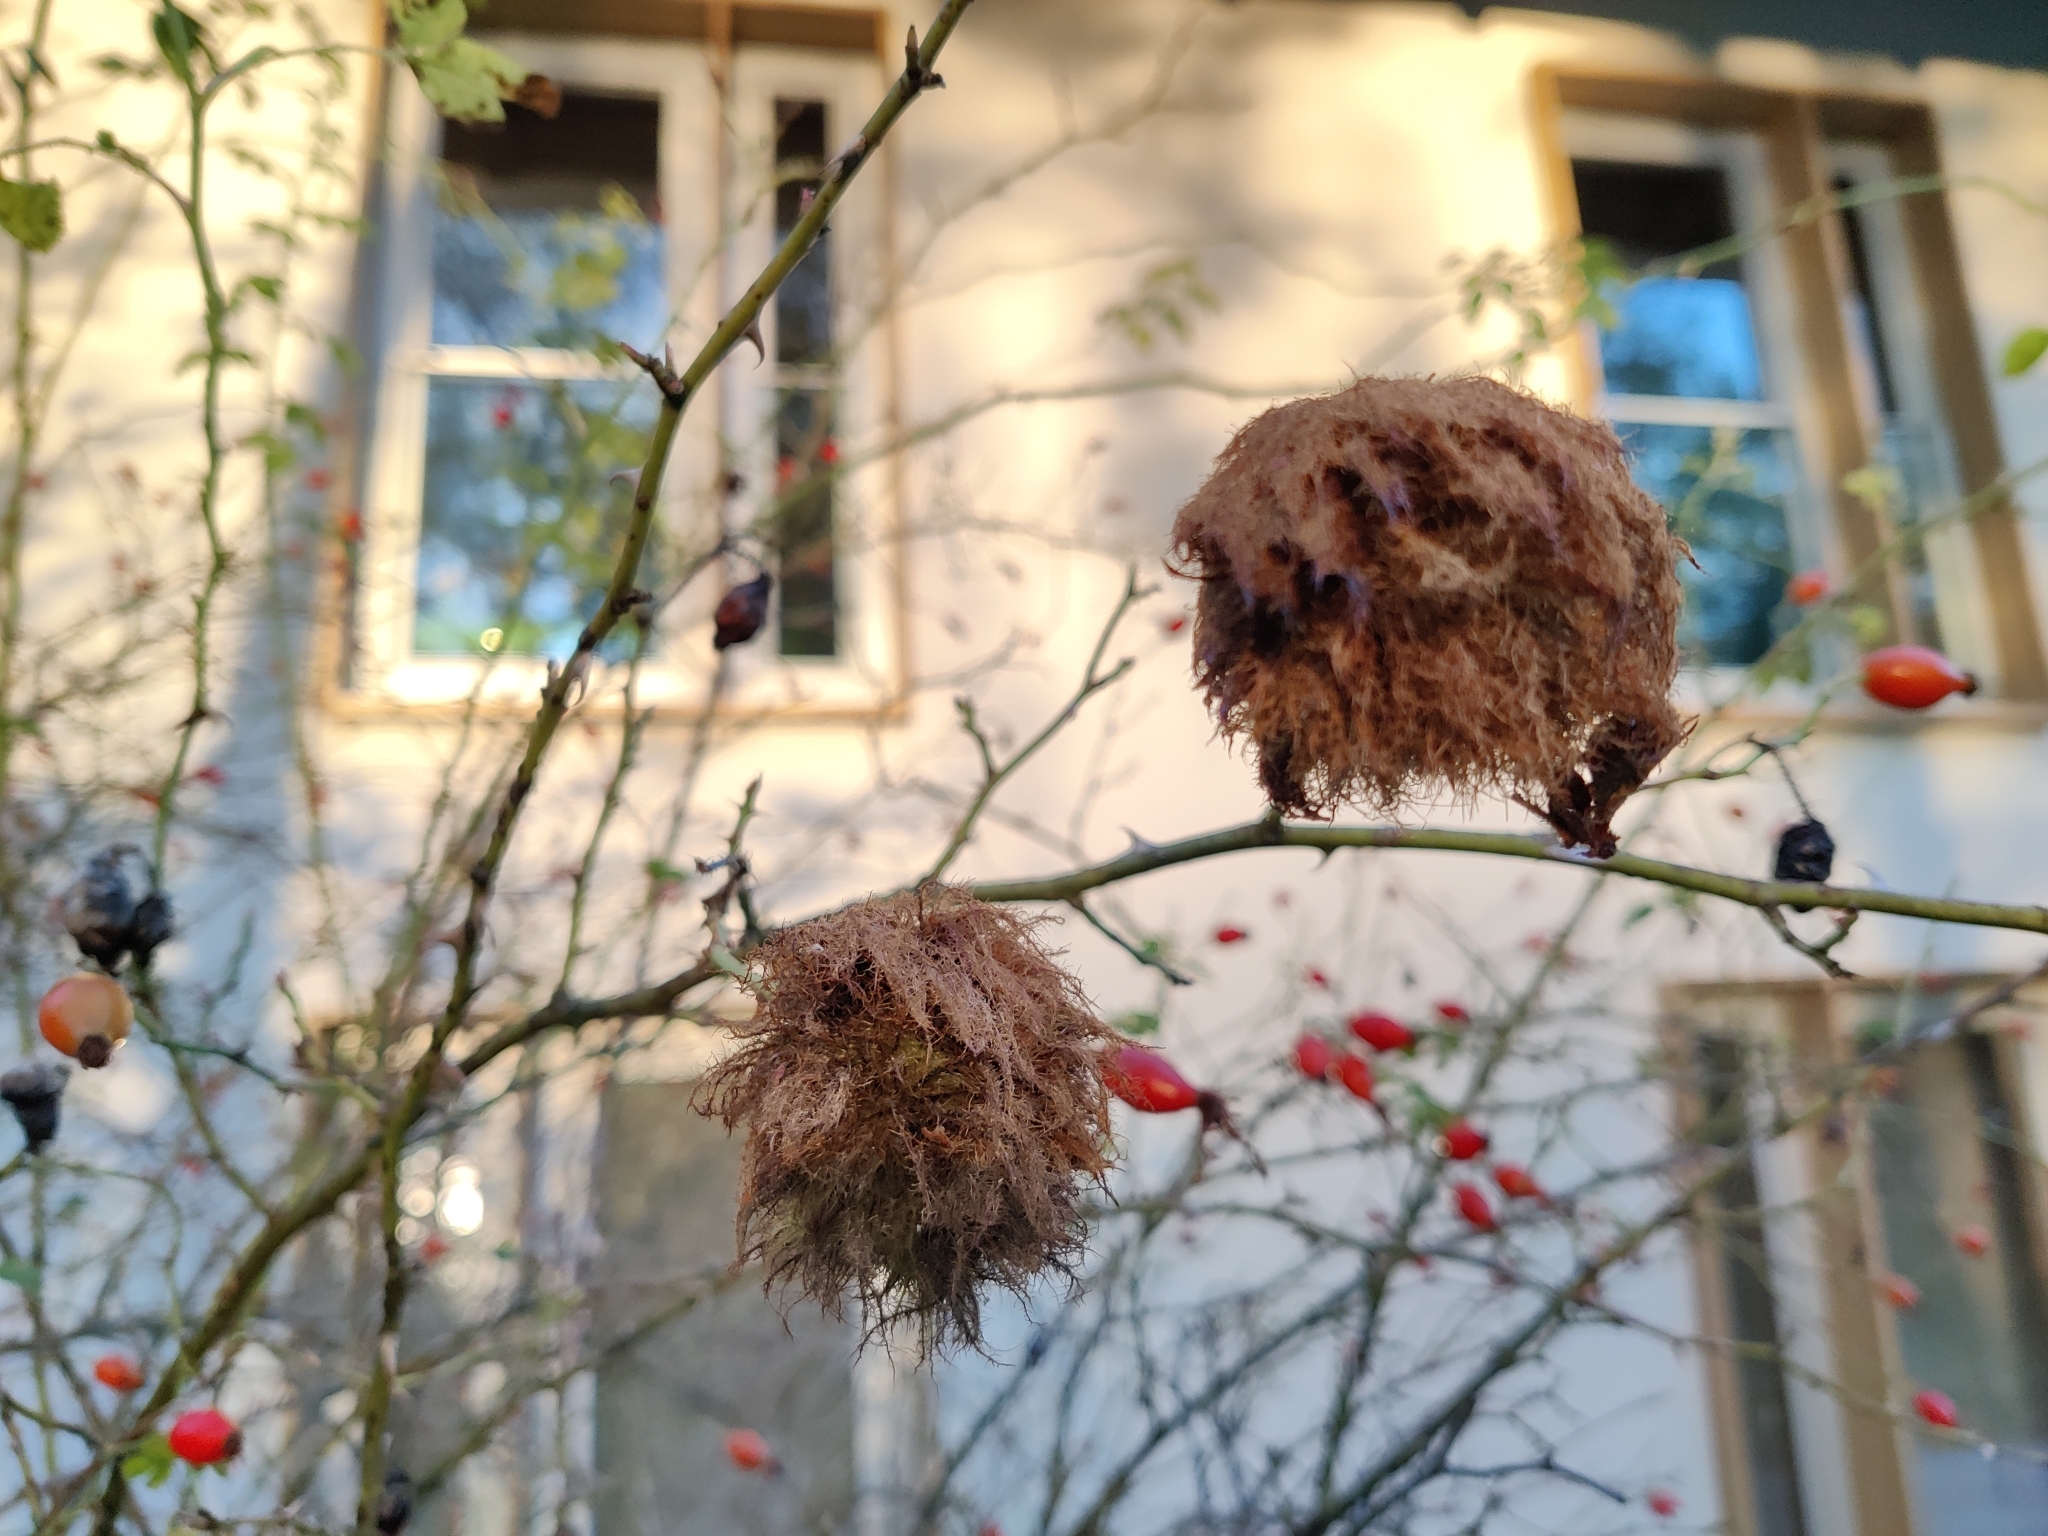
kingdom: Animalia
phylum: Arthropoda
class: Insecta
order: Hymenoptera
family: Cynipidae
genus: Diplolepis
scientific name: Diplolepis rosae
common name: Bedeguar gall
